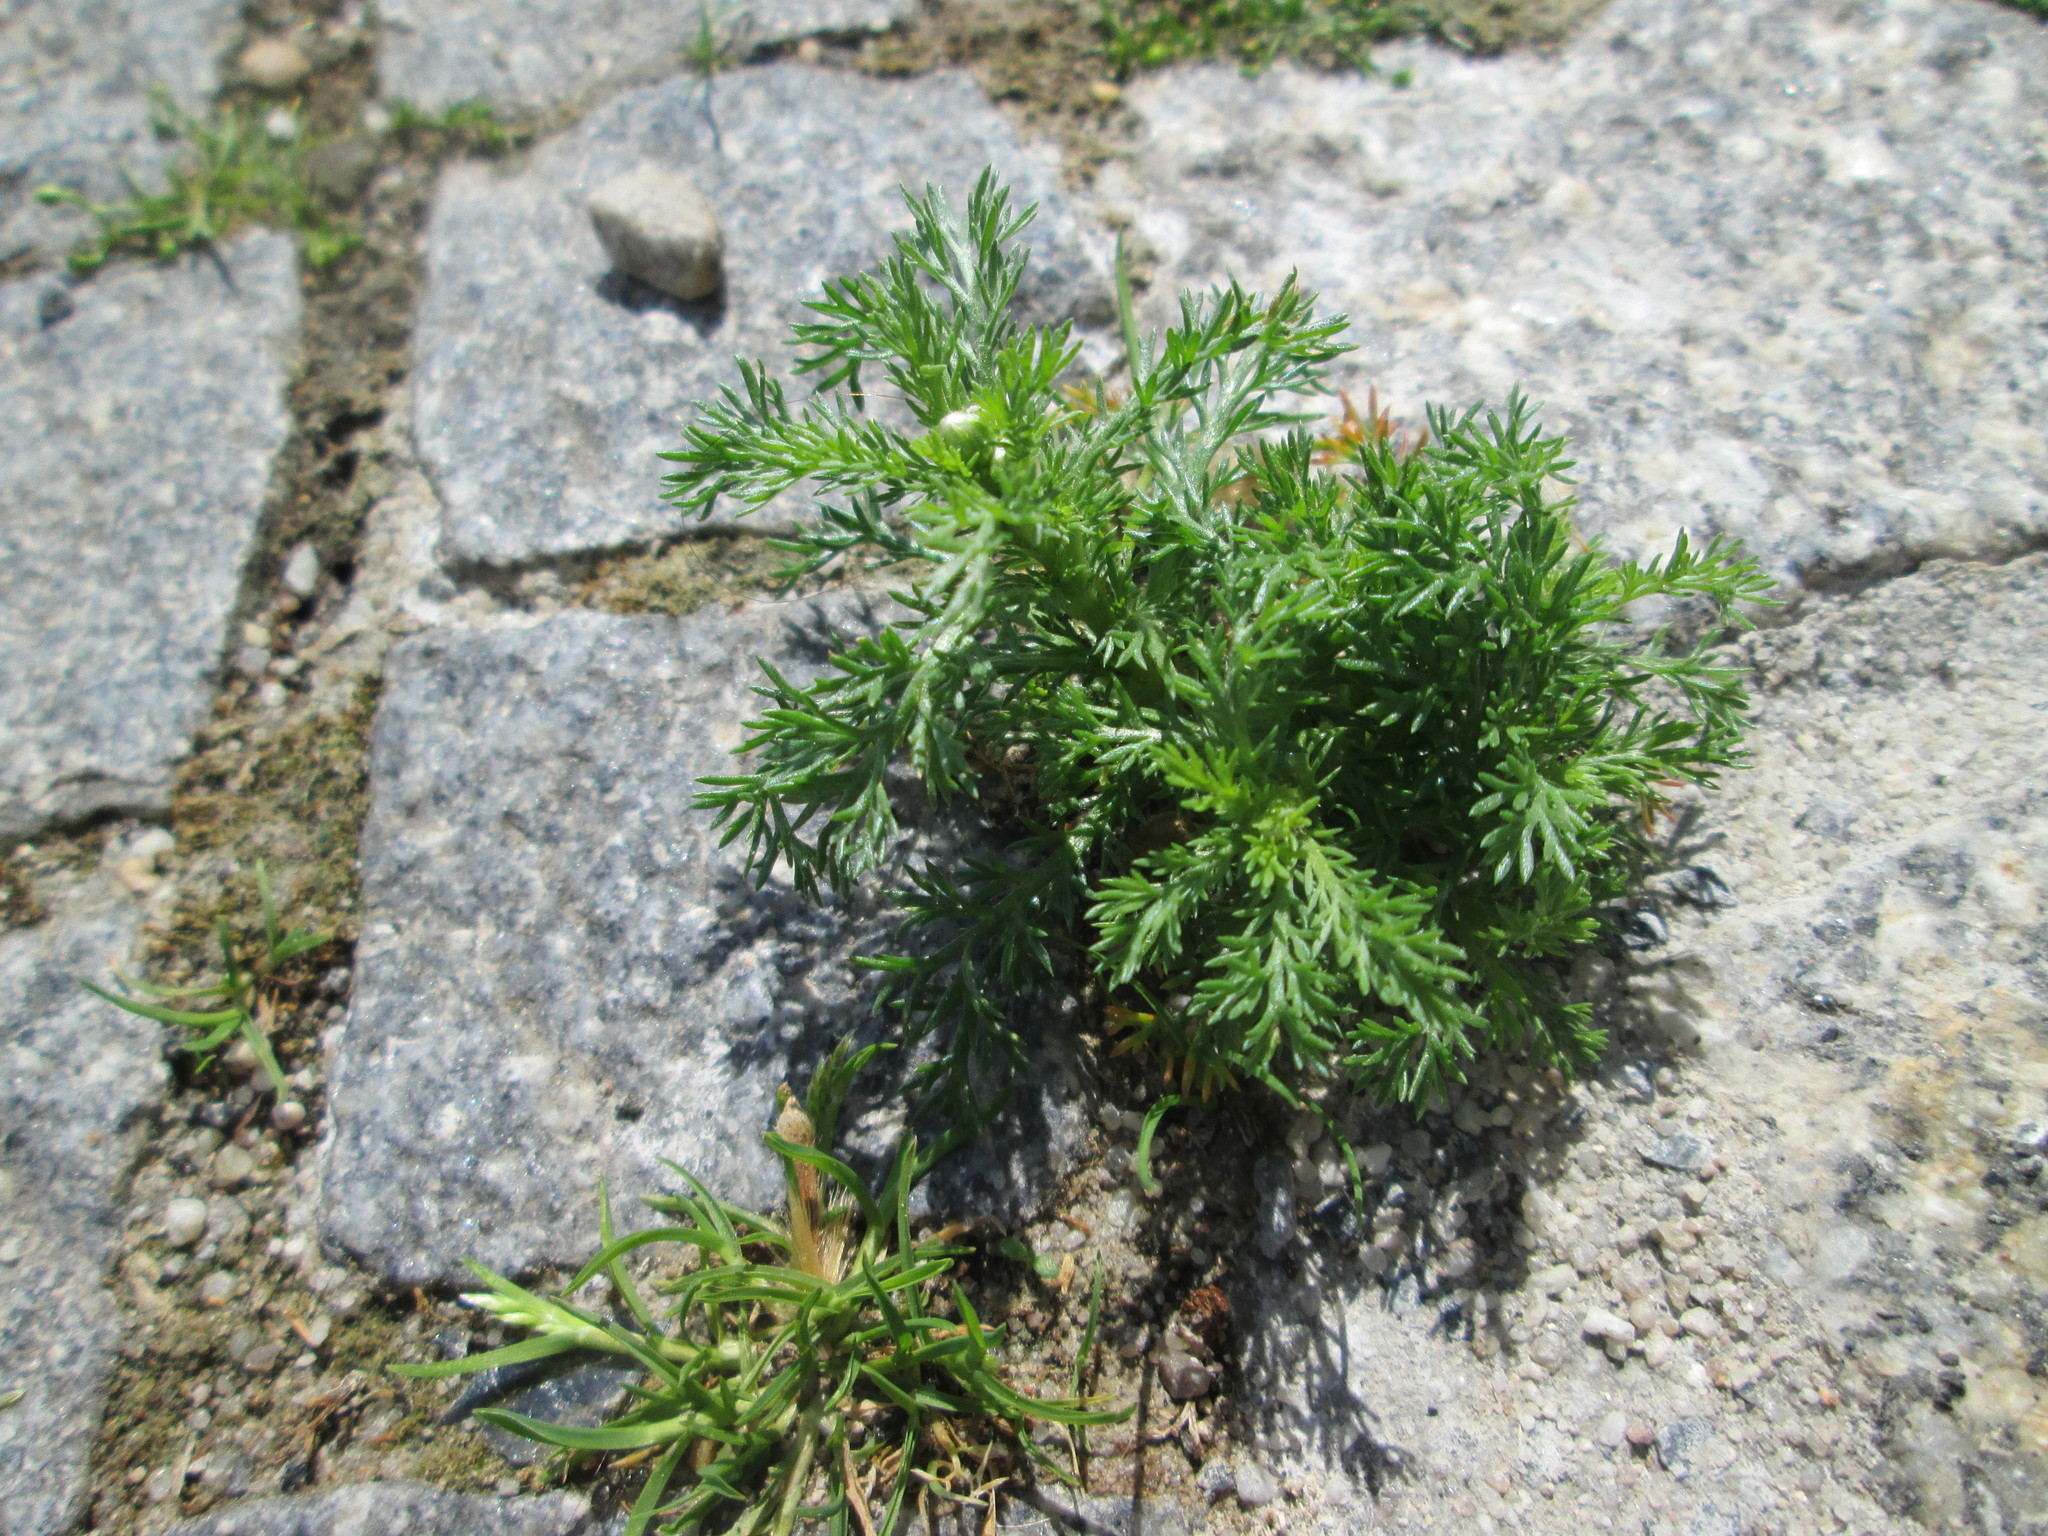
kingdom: Plantae
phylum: Tracheophyta
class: Magnoliopsida
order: Asterales
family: Asteraceae
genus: Matricaria
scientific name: Matricaria discoidea
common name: Disc mayweed
